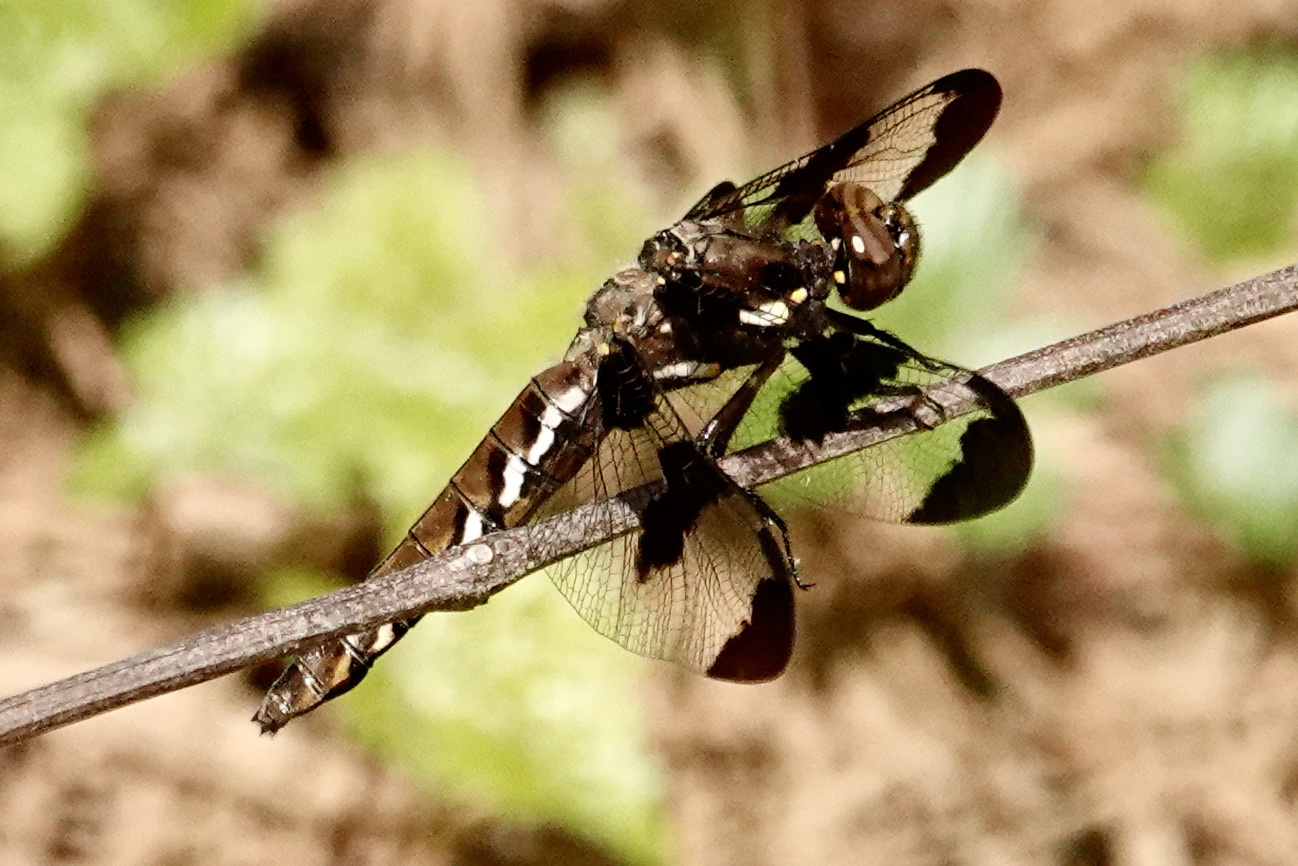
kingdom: Animalia
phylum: Arthropoda
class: Insecta
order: Odonata
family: Libellulidae
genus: Plathemis
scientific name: Plathemis lydia
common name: Common whitetail
